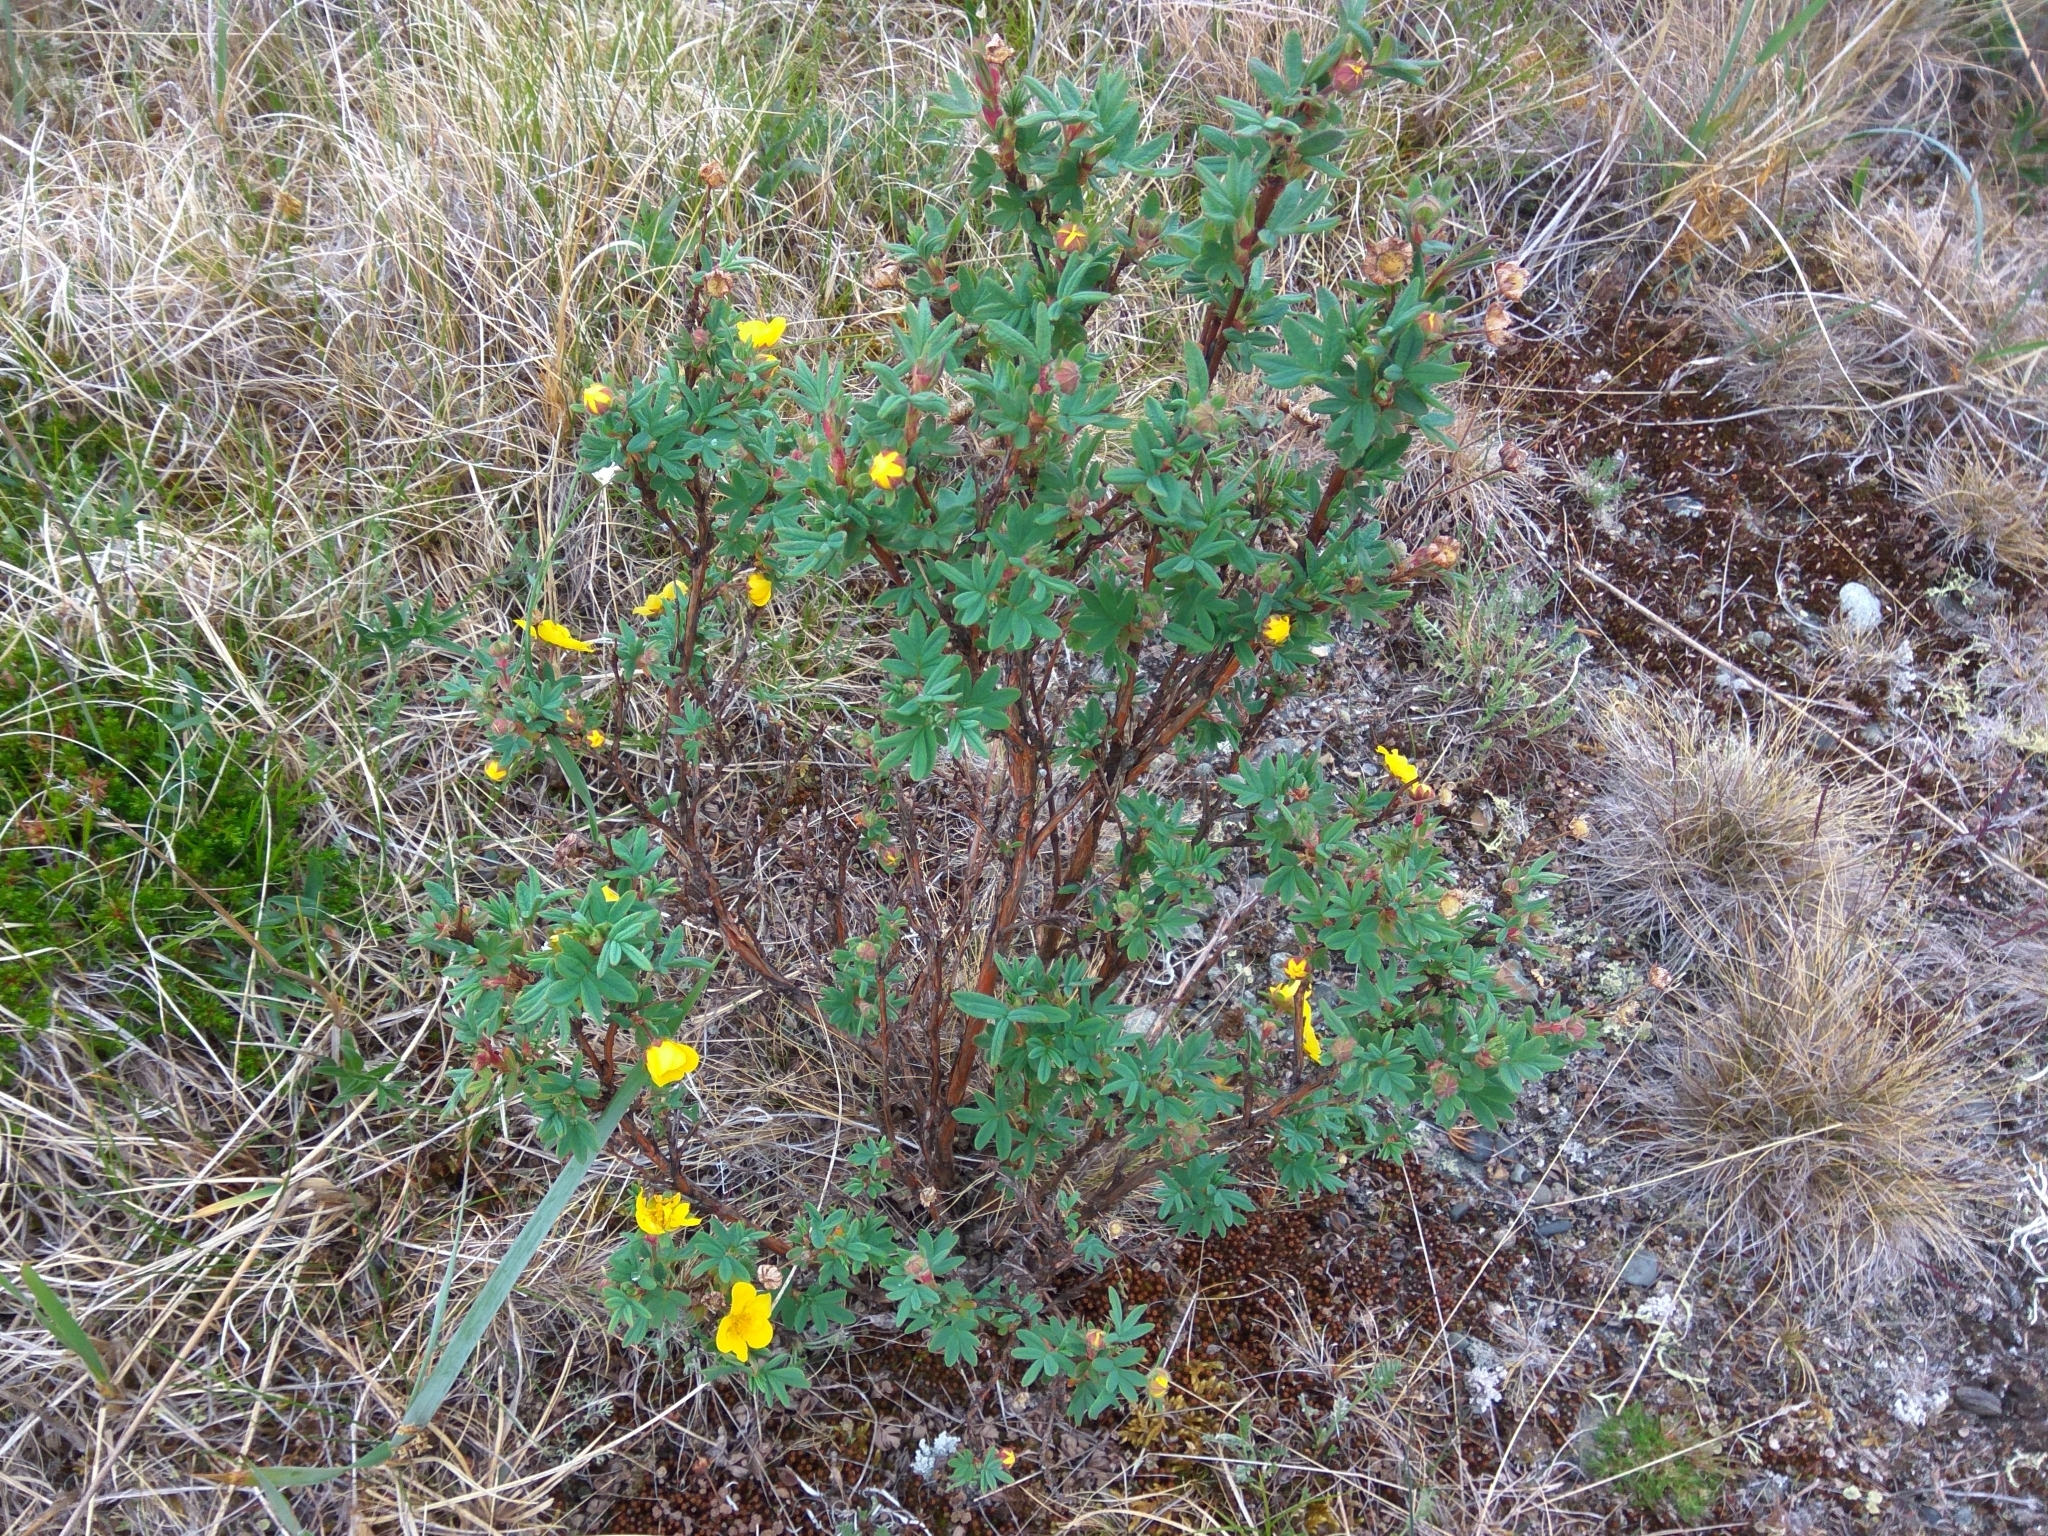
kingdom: Plantae
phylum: Tracheophyta
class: Magnoliopsida
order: Rosales
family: Rosaceae
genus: Dasiphora
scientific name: Dasiphora fruticosa
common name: Shrubby cinquefoil
